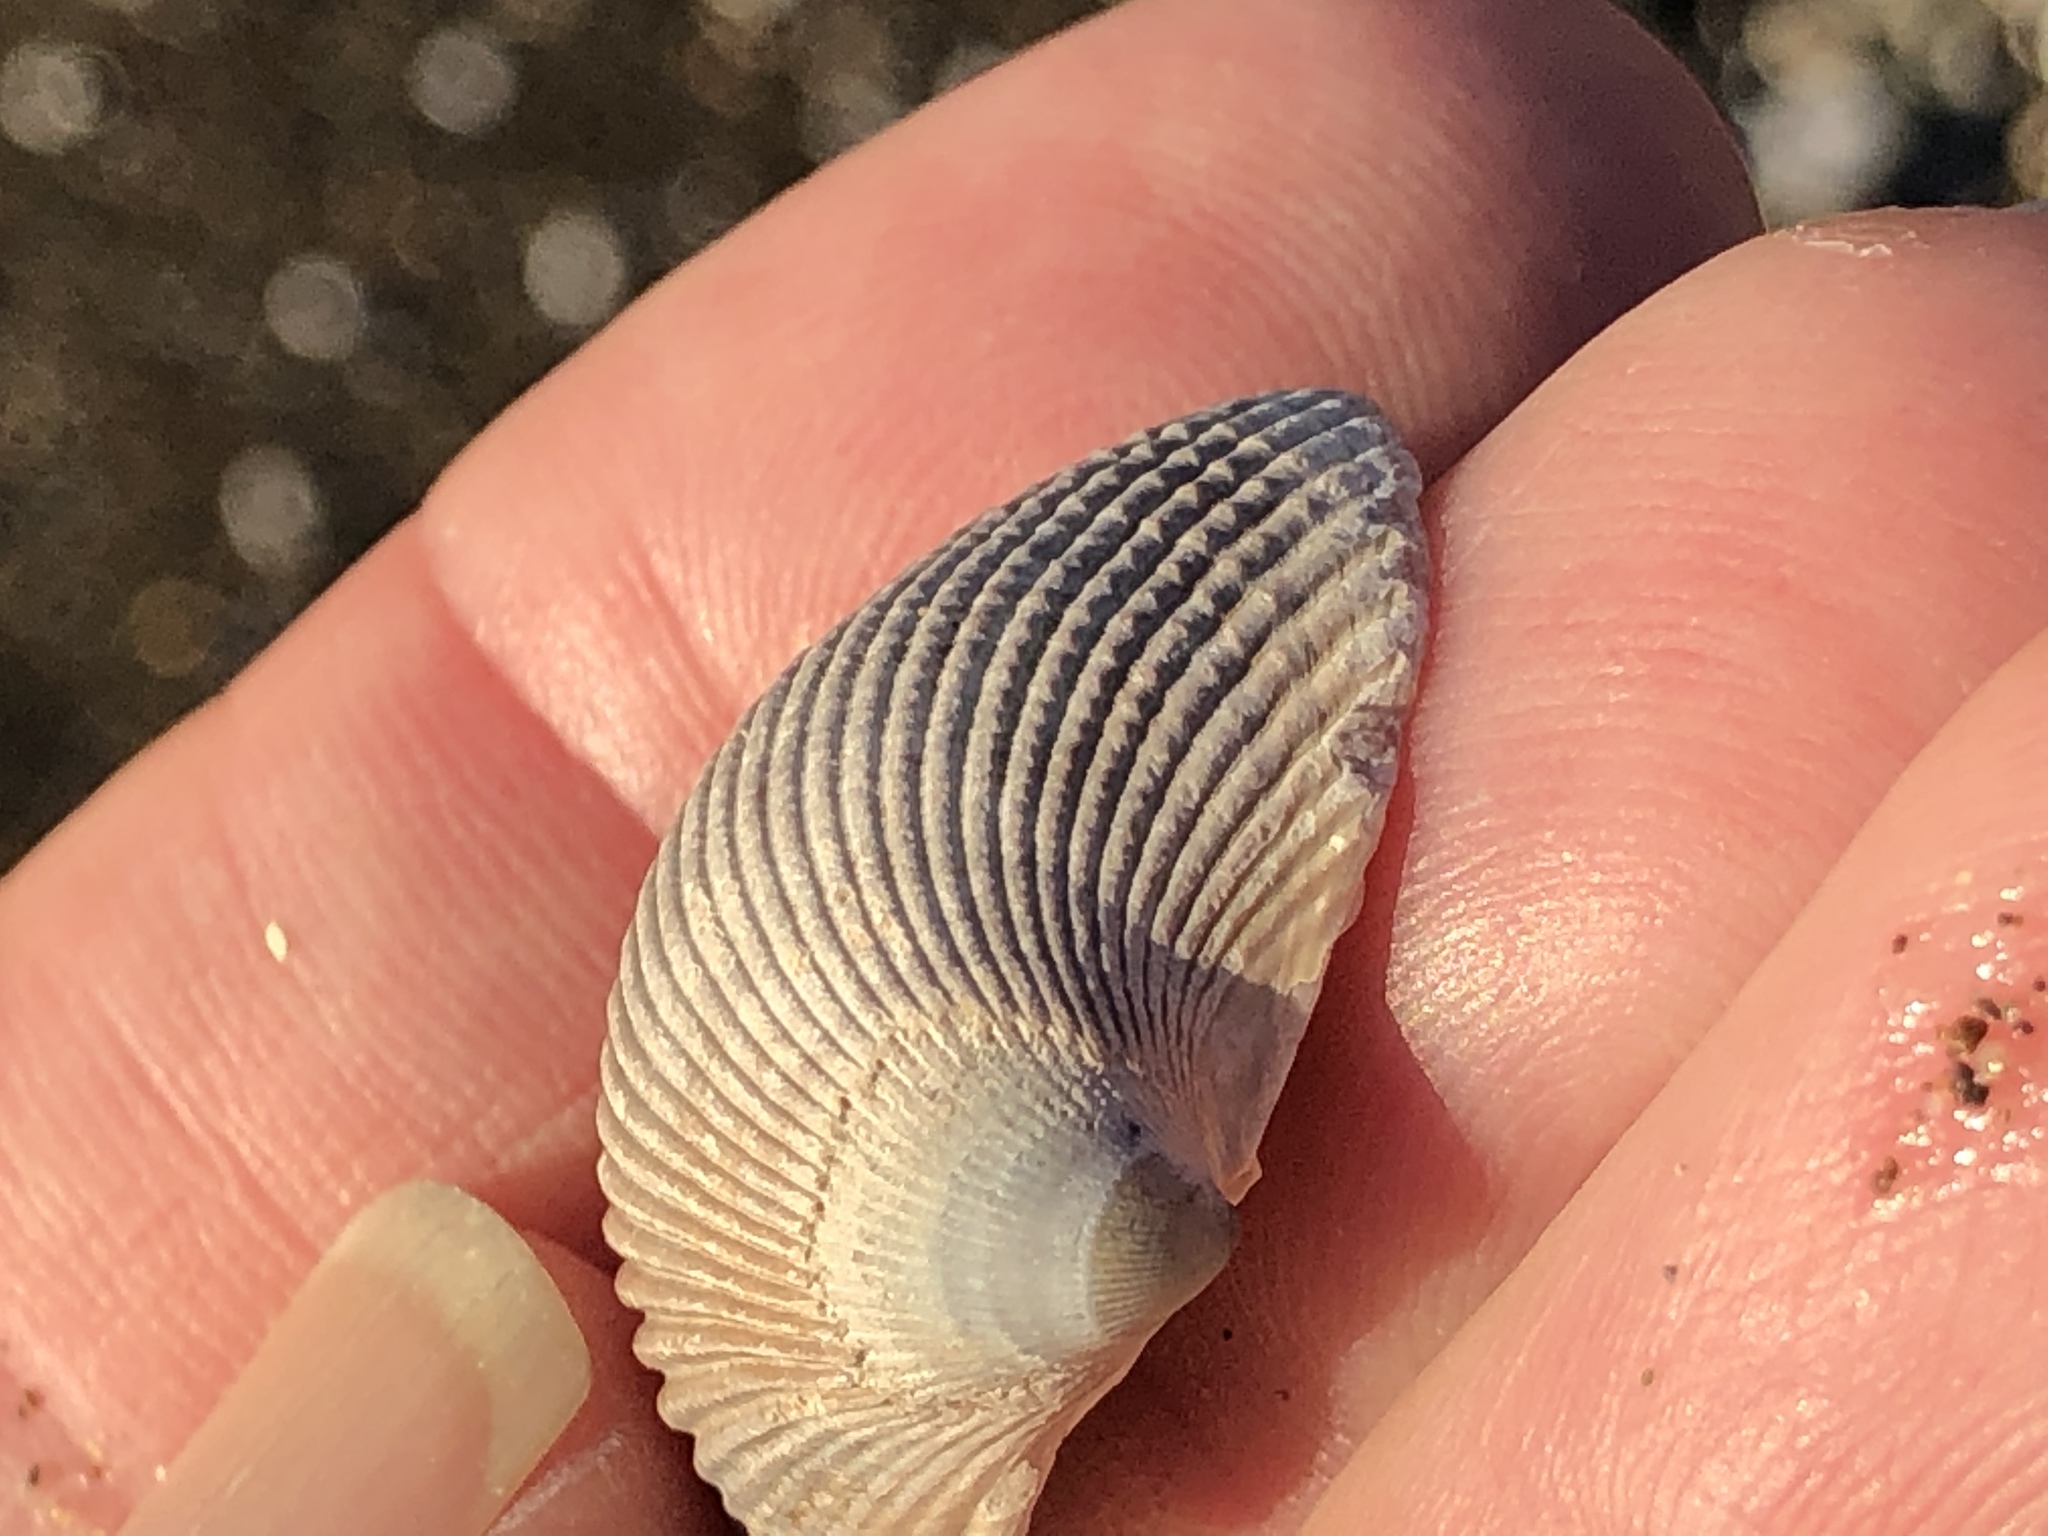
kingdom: Animalia
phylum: Mollusca
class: Bivalvia
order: Cardiida
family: Cardiidae
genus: Clinocardium
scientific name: Clinocardium nuttallii
